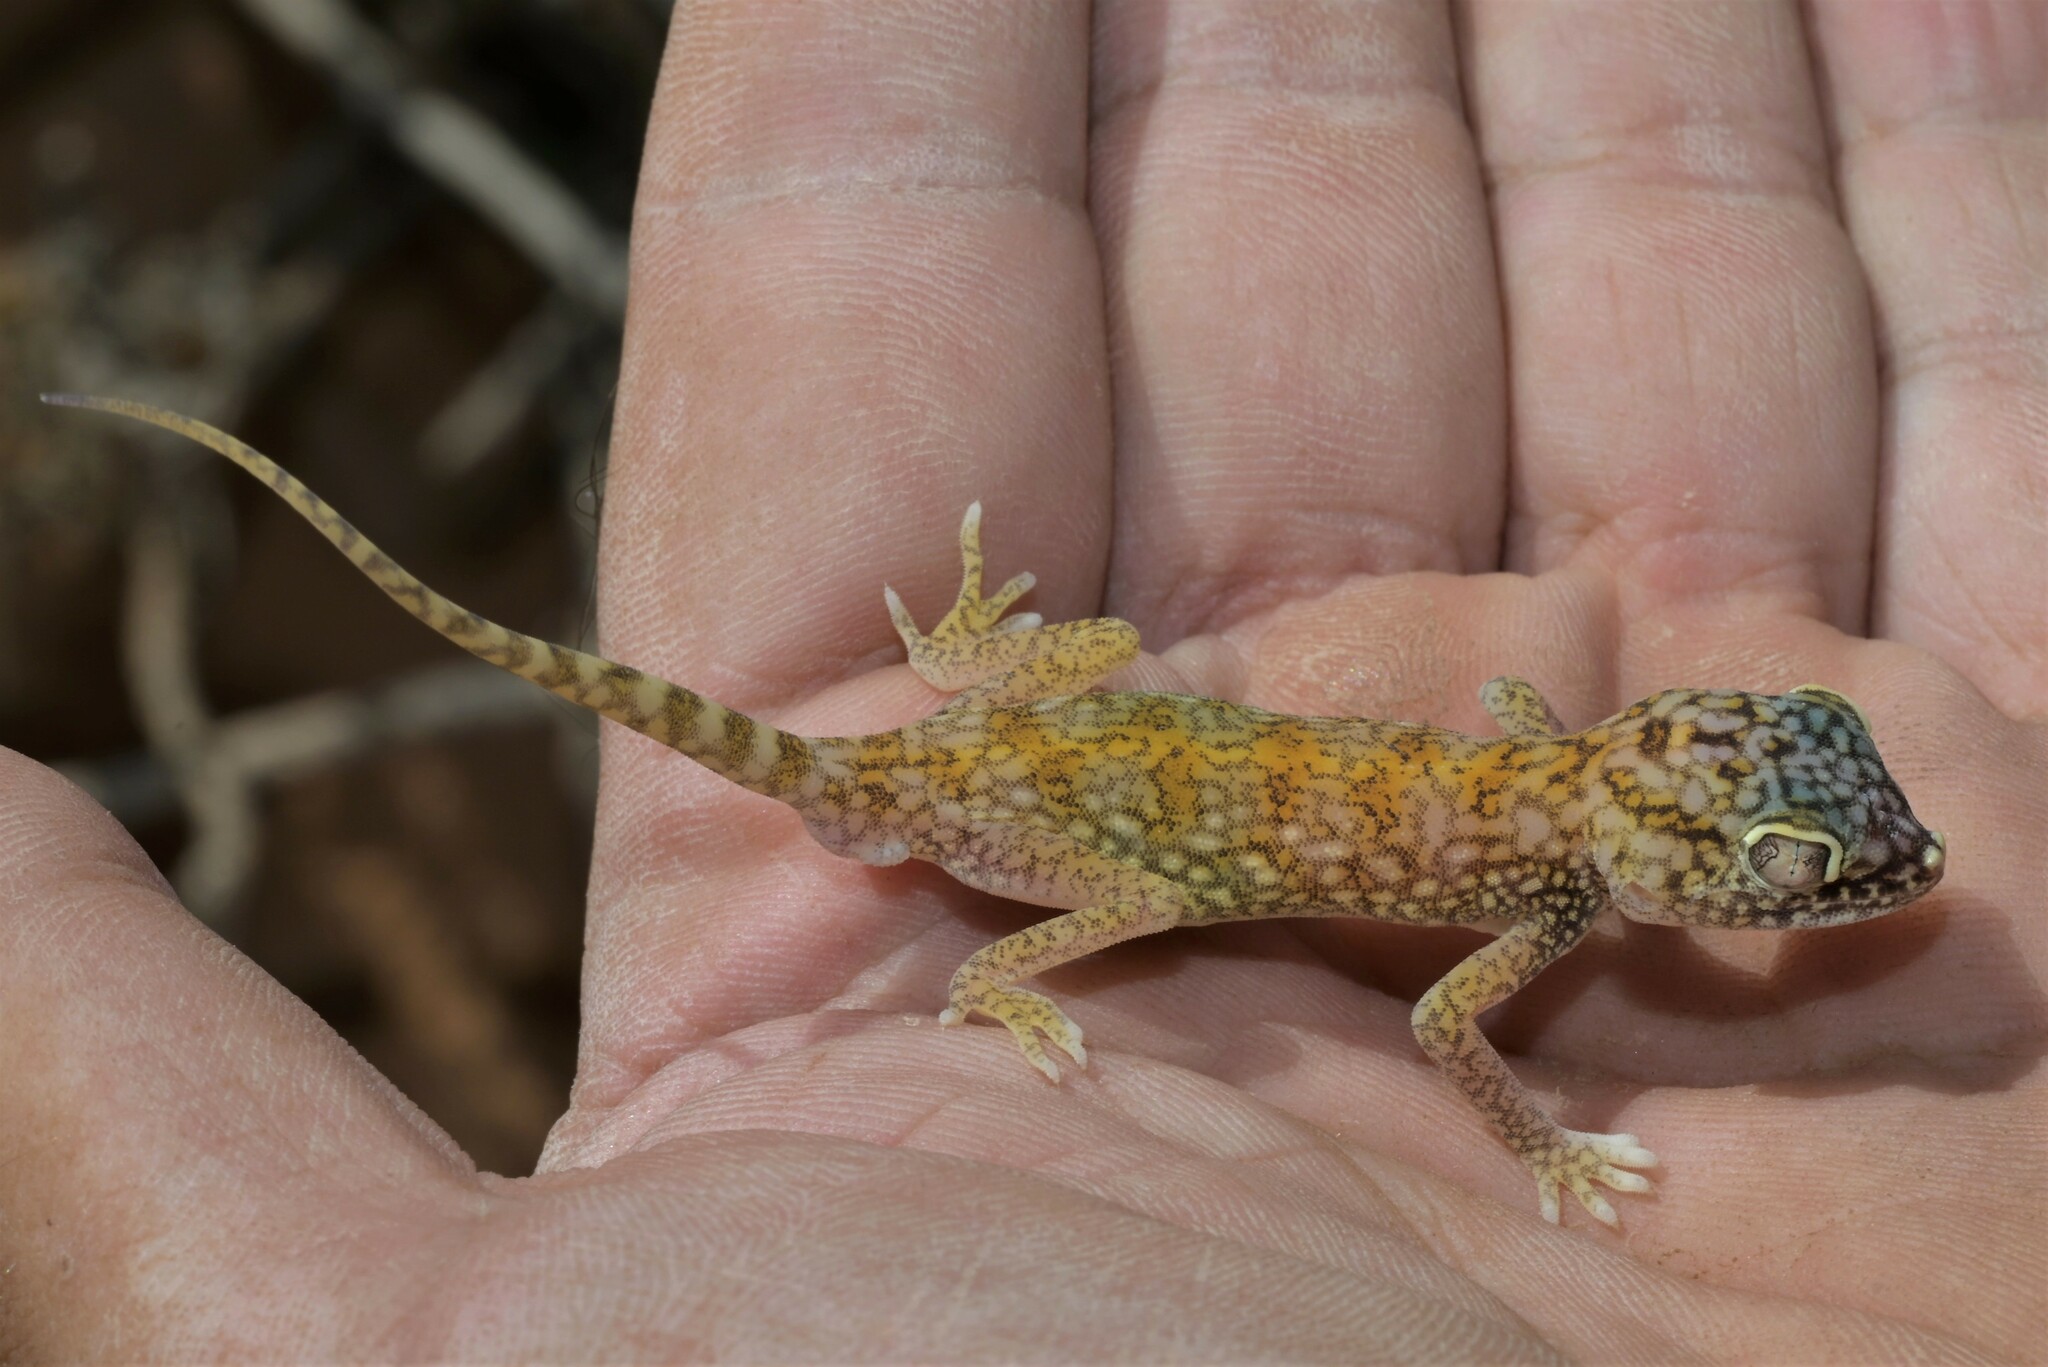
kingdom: Animalia
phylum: Chordata
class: Squamata
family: Gekkonidae
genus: Stenodactylus
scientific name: Stenodactylus doriae
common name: Dune sand gecko
